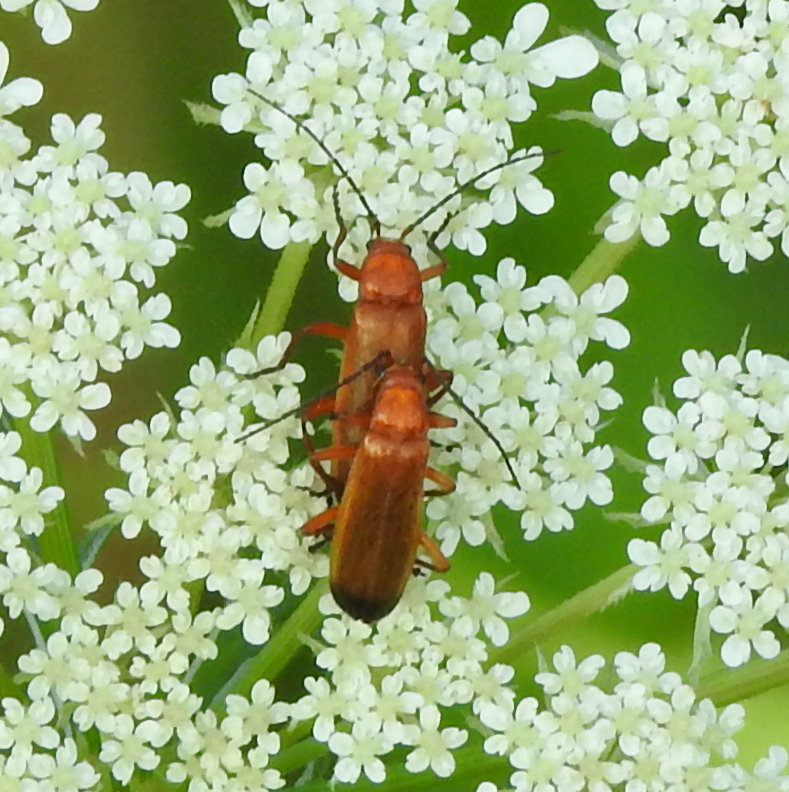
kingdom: Animalia
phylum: Arthropoda
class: Insecta
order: Coleoptera
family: Cantharidae
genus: Rhagonycha
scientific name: Rhagonycha fulva
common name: Common red soldier beetle
